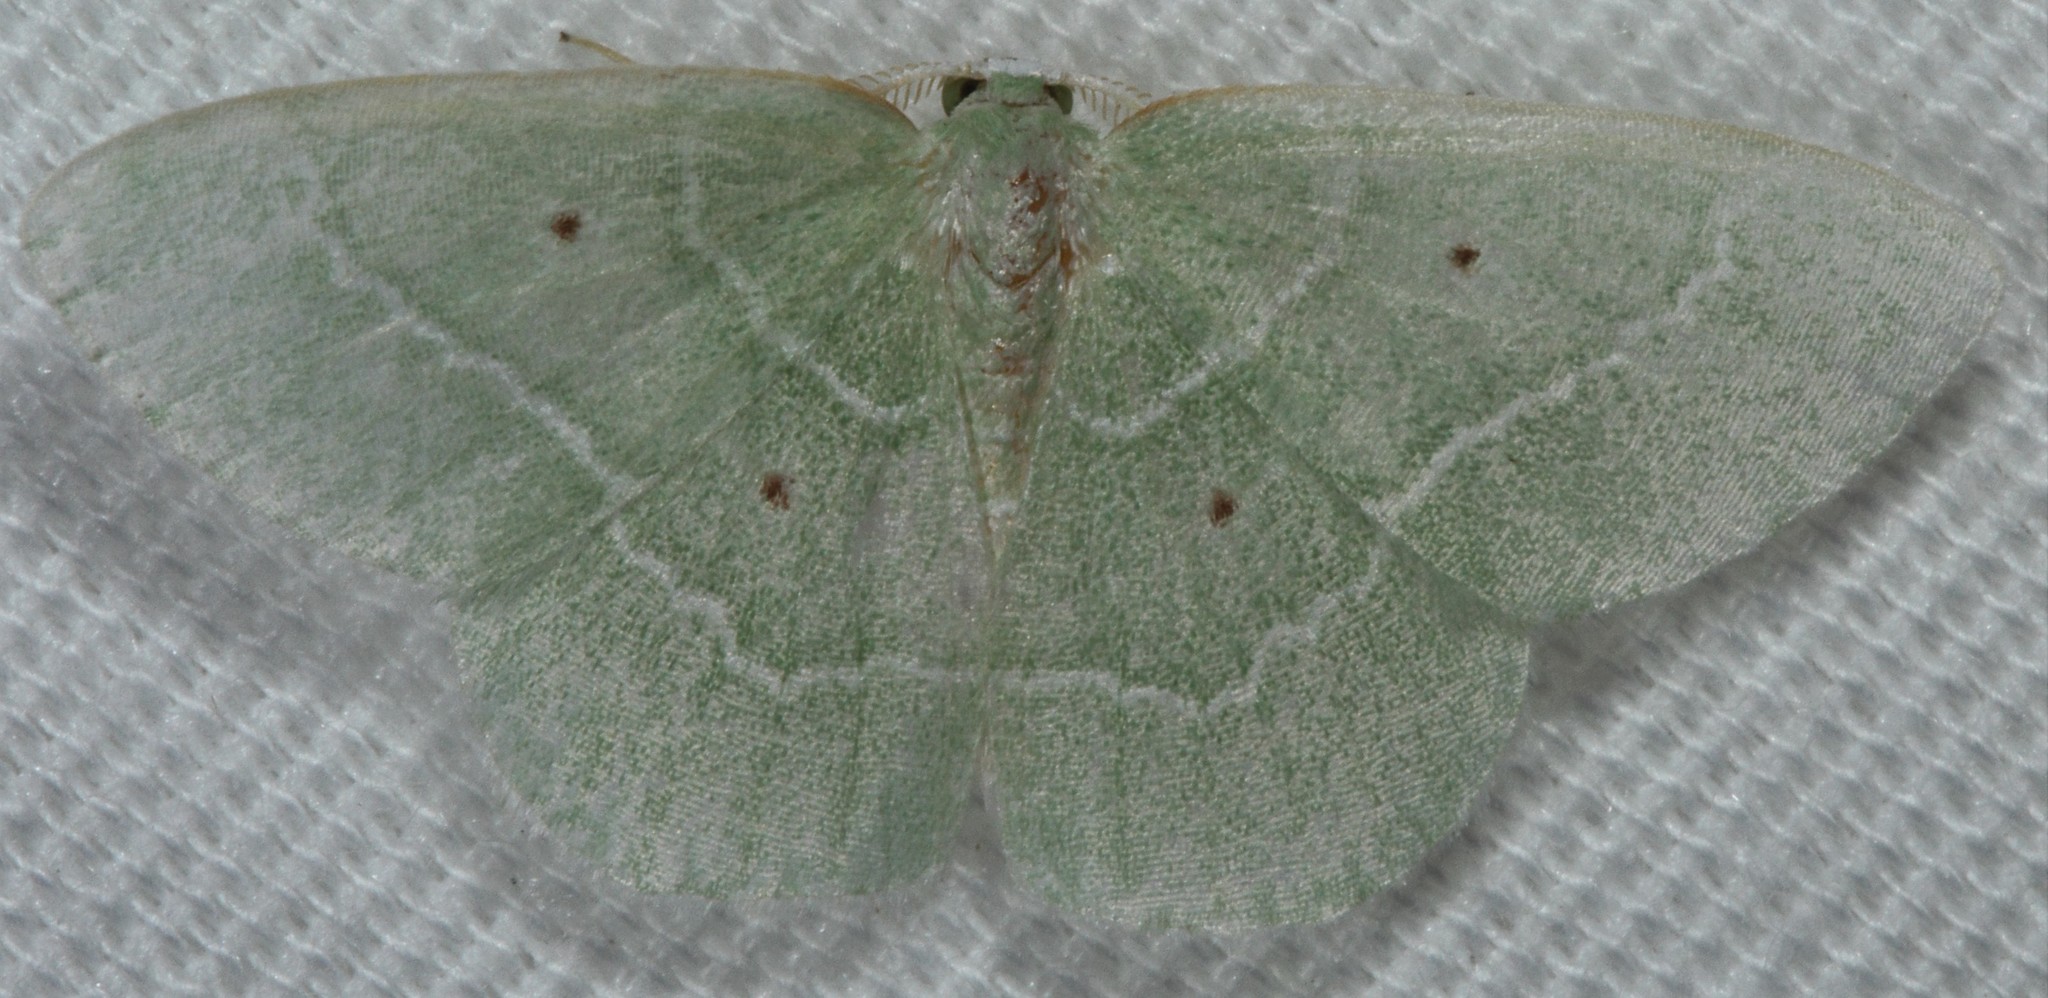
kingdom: Animalia
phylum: Arthropoda
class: Insecta
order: Lepidoptera
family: Geometridae
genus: Nemoria
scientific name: Nemoria elfa
